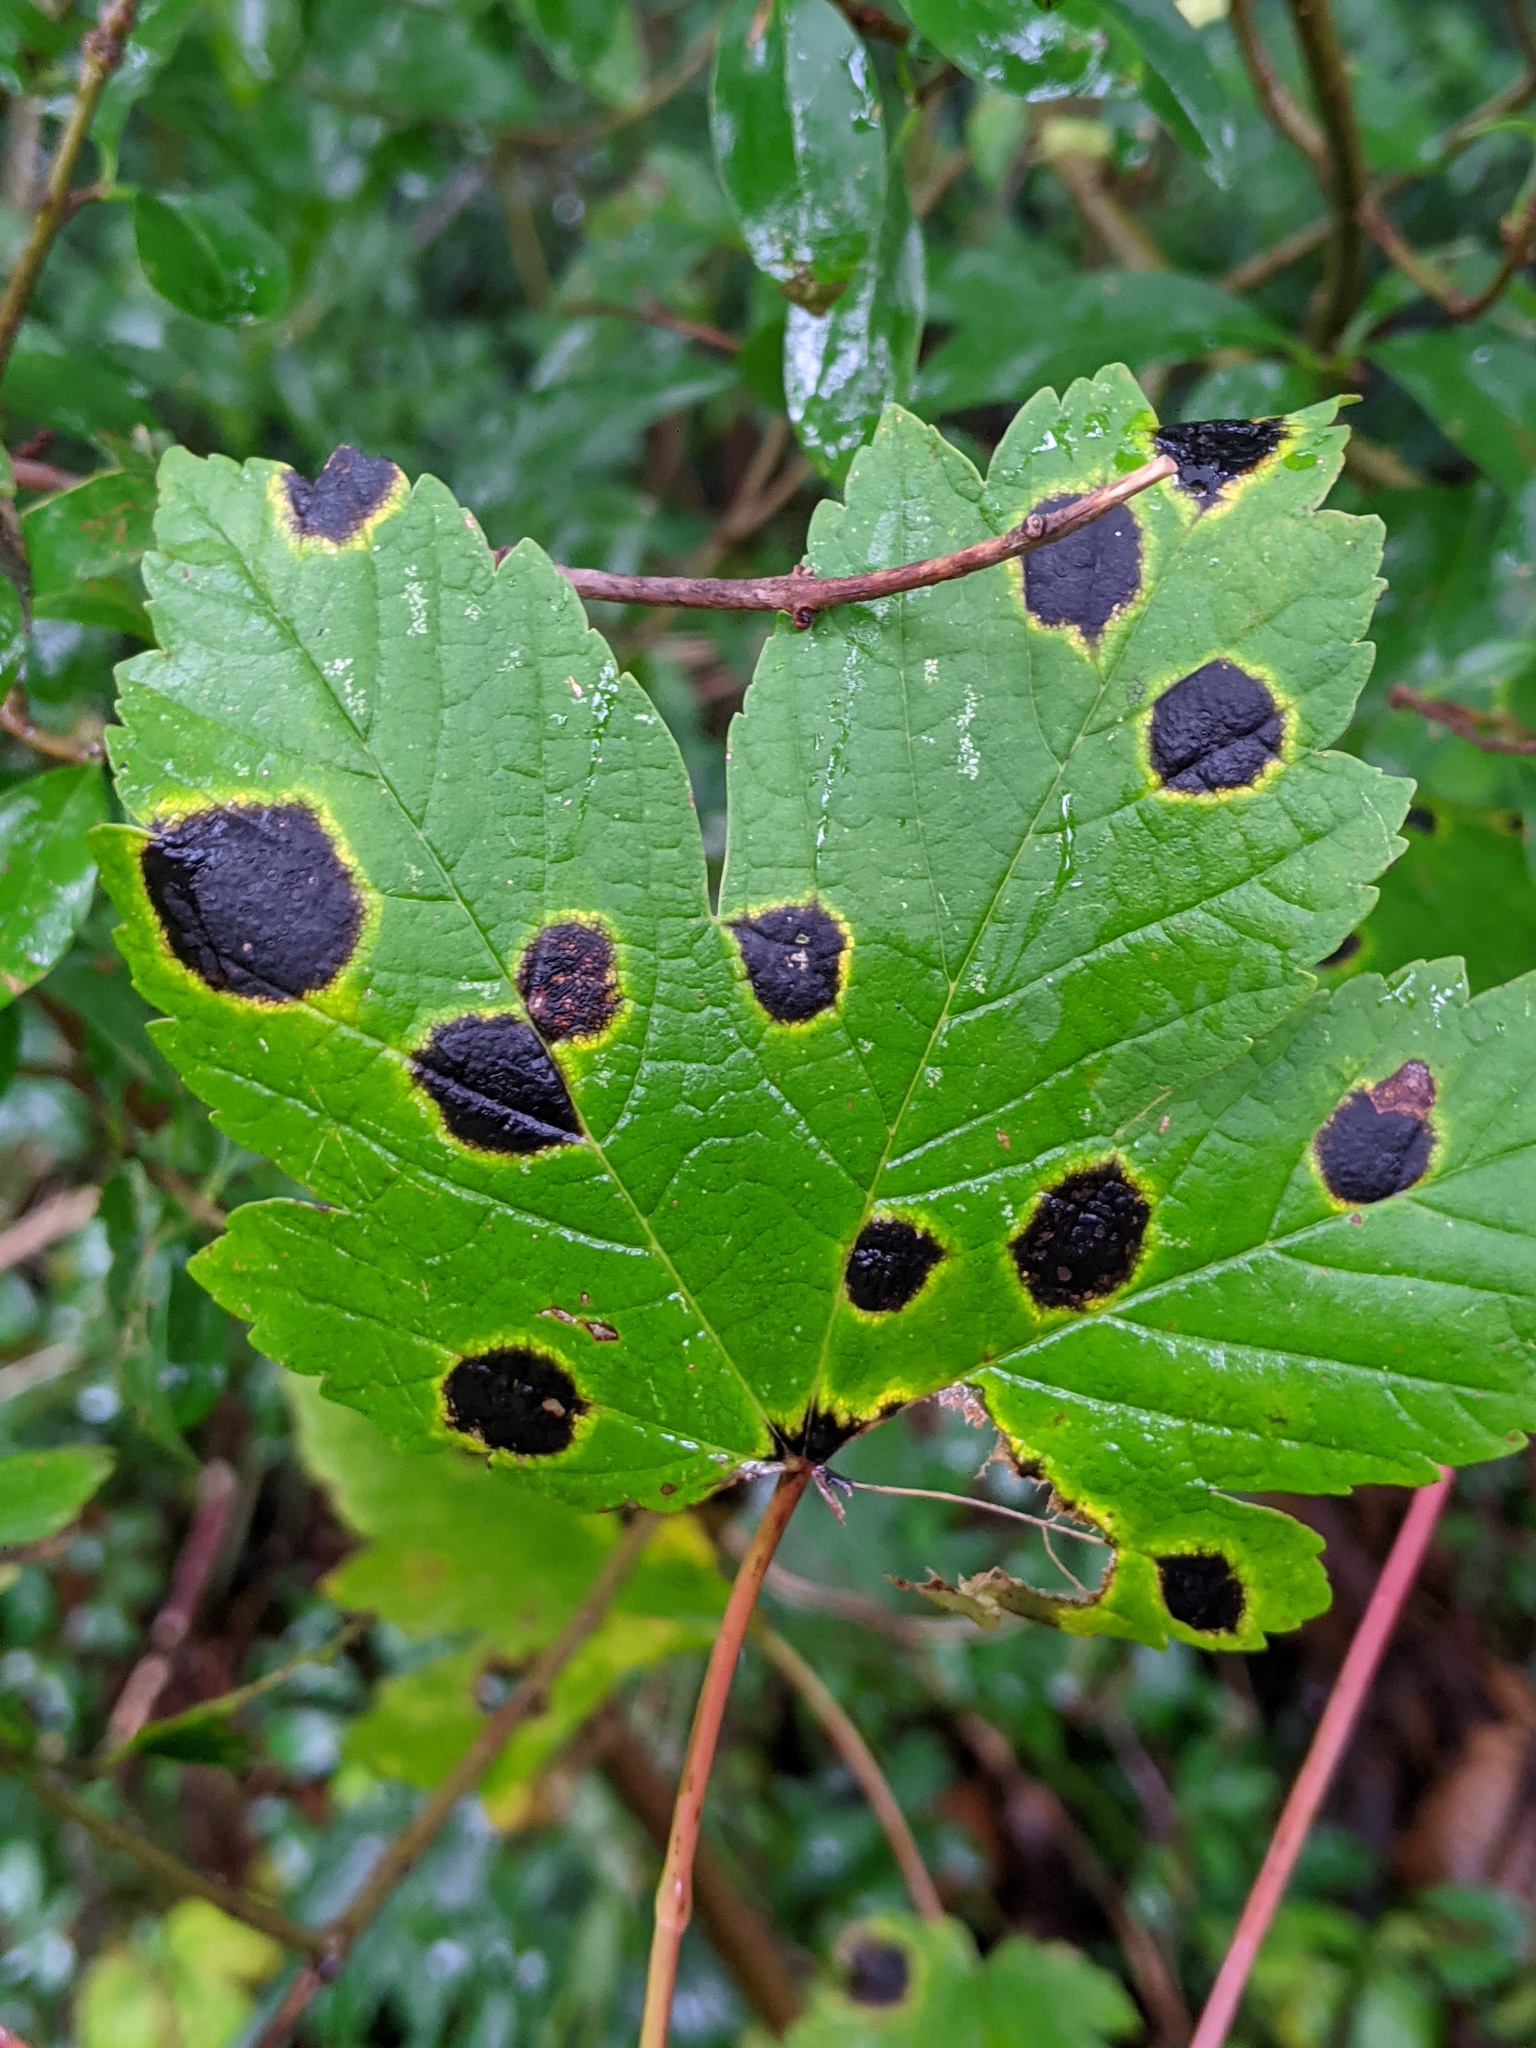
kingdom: Fungi
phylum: Ascomycota
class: Leotiomycetes
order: Rhytismatales
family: Rhytismataceae
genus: Rhytisma
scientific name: Rhytisma acerinum
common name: European tar spot
